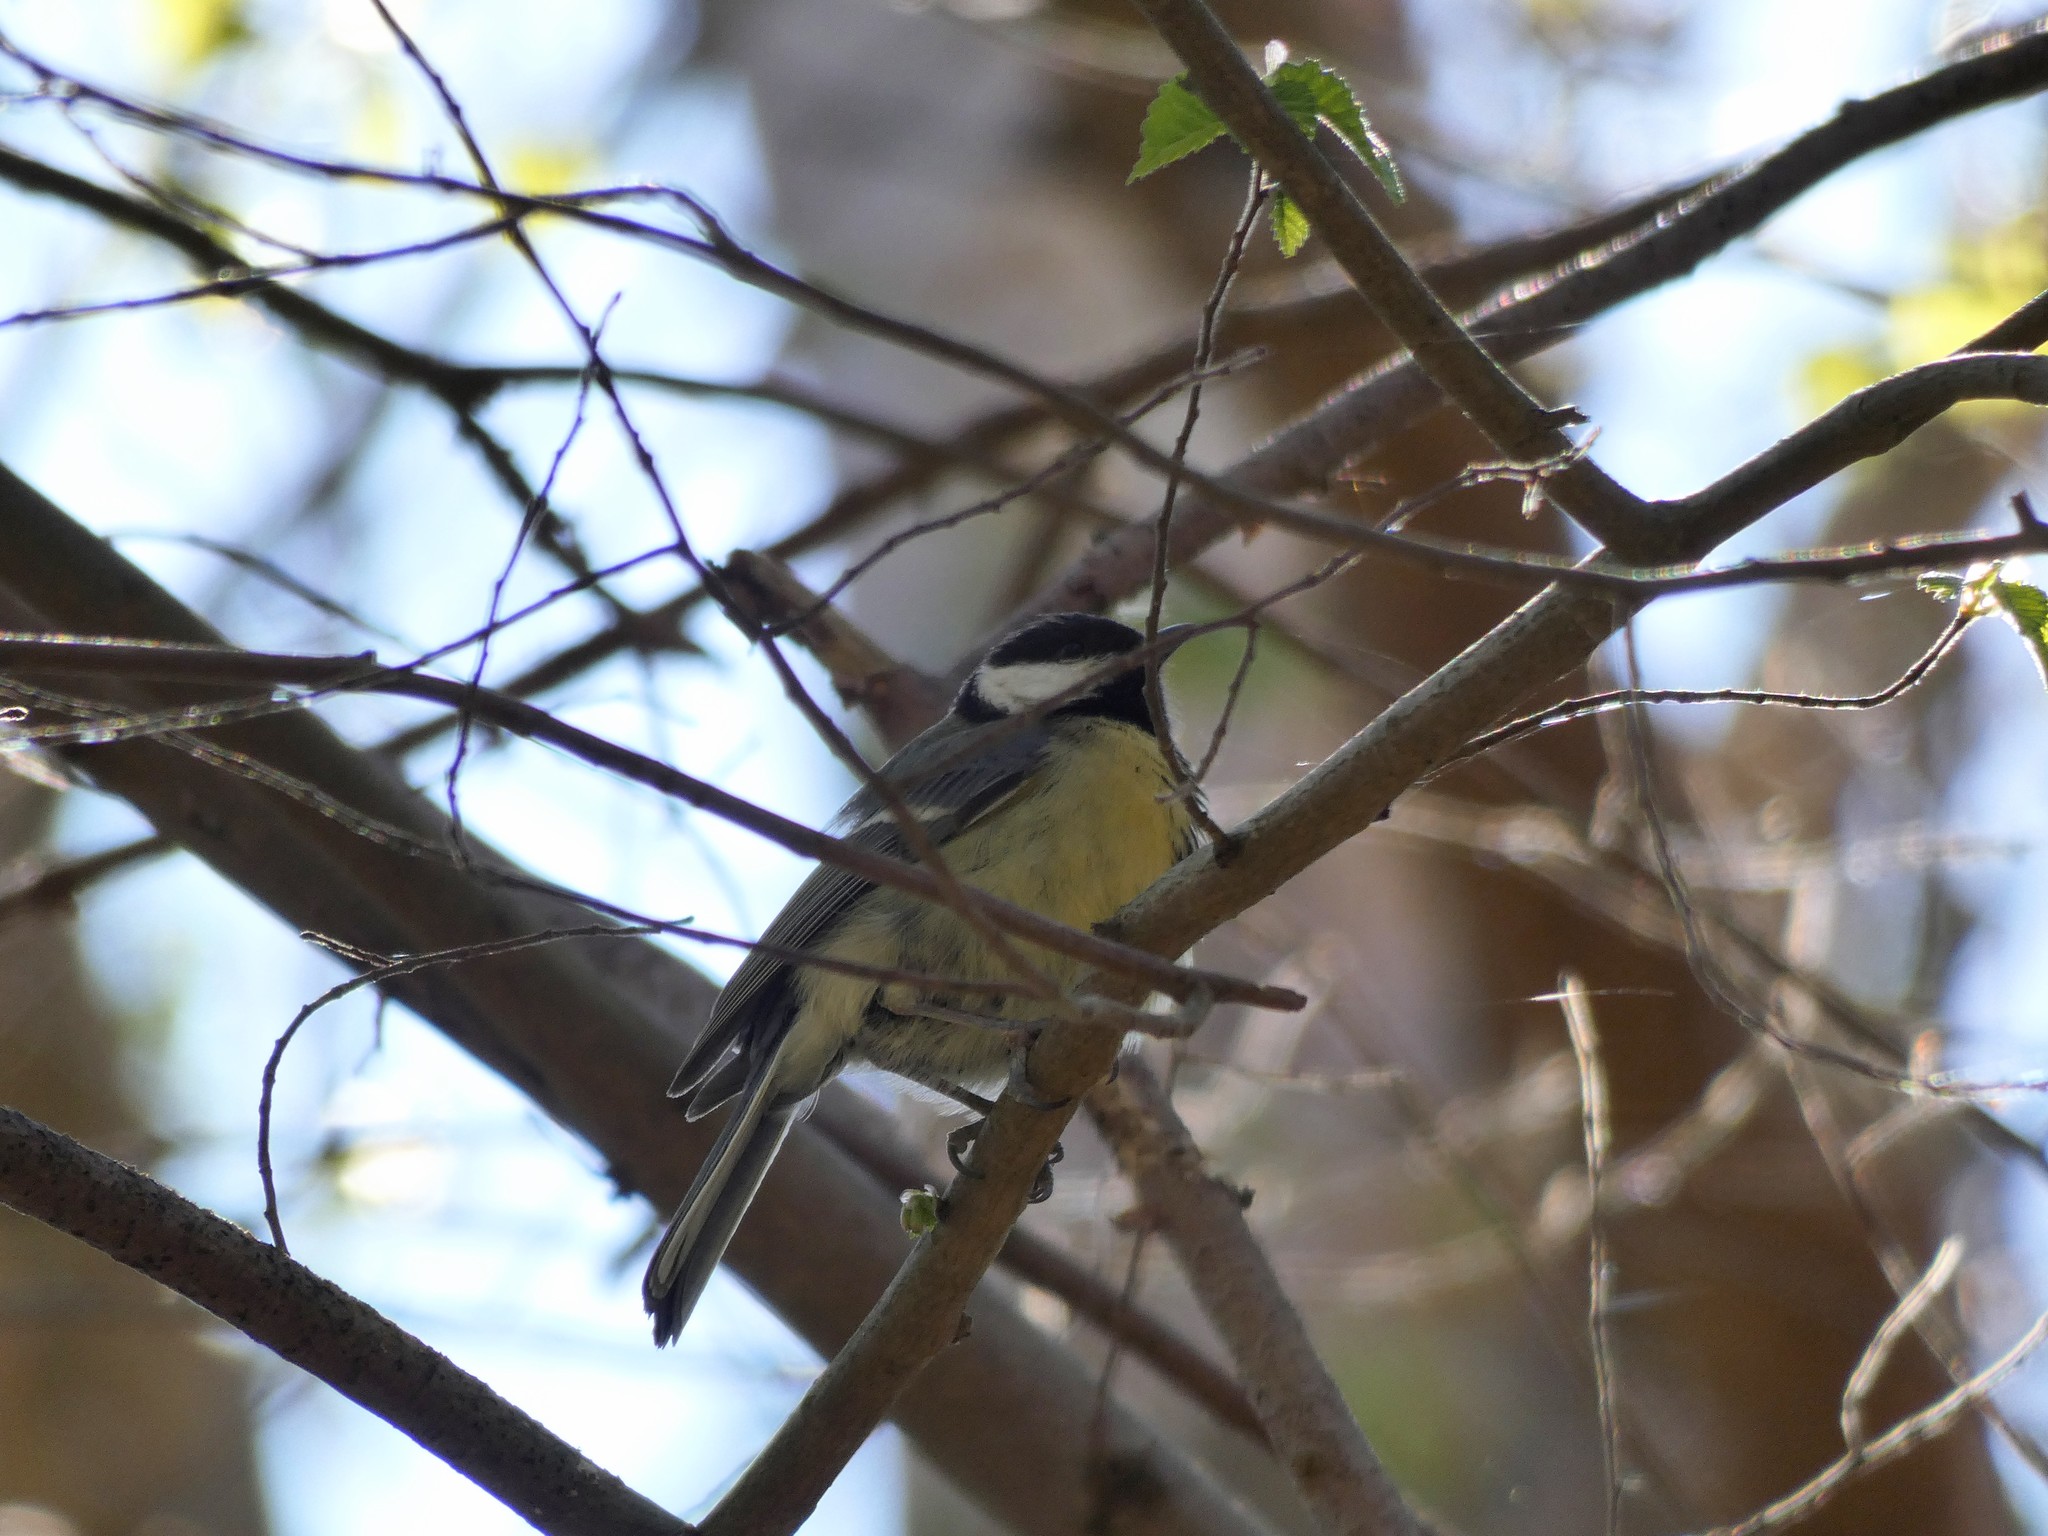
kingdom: Animalia
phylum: Chordata
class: Aves
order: Passeriformes
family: Paridae
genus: Parus
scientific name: Parus major
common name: Great tit
